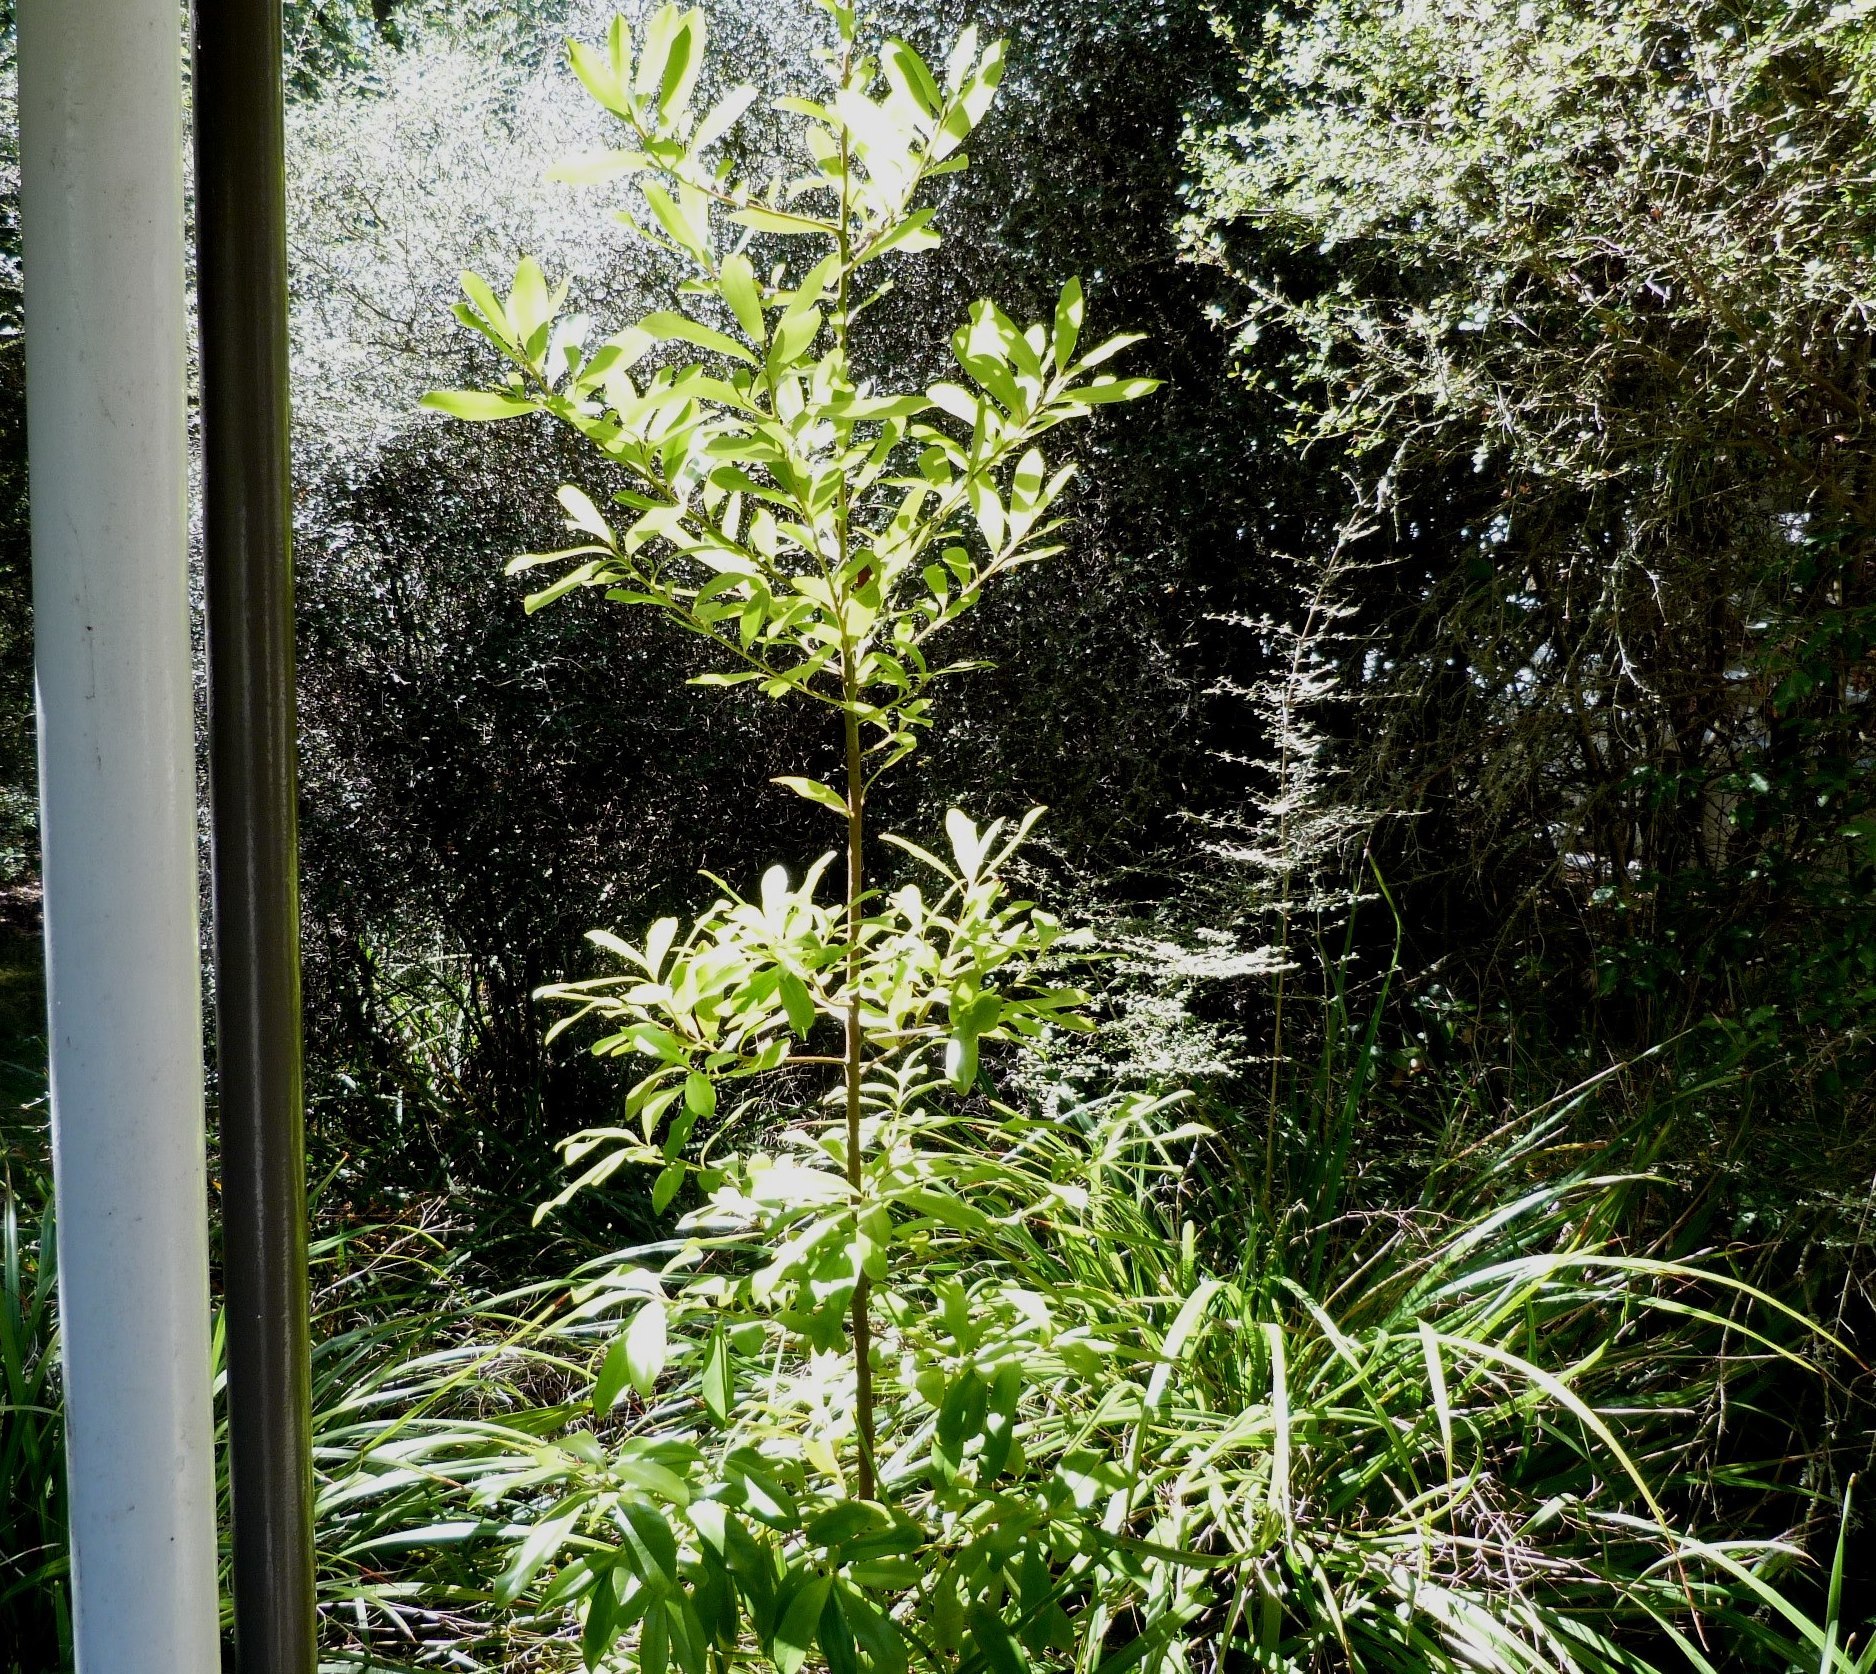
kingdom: Plantae
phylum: Tracheophyta
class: Magnoliopsida
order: Ericales
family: Primulaceae
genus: Myrsine
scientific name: Myrsine salicina
